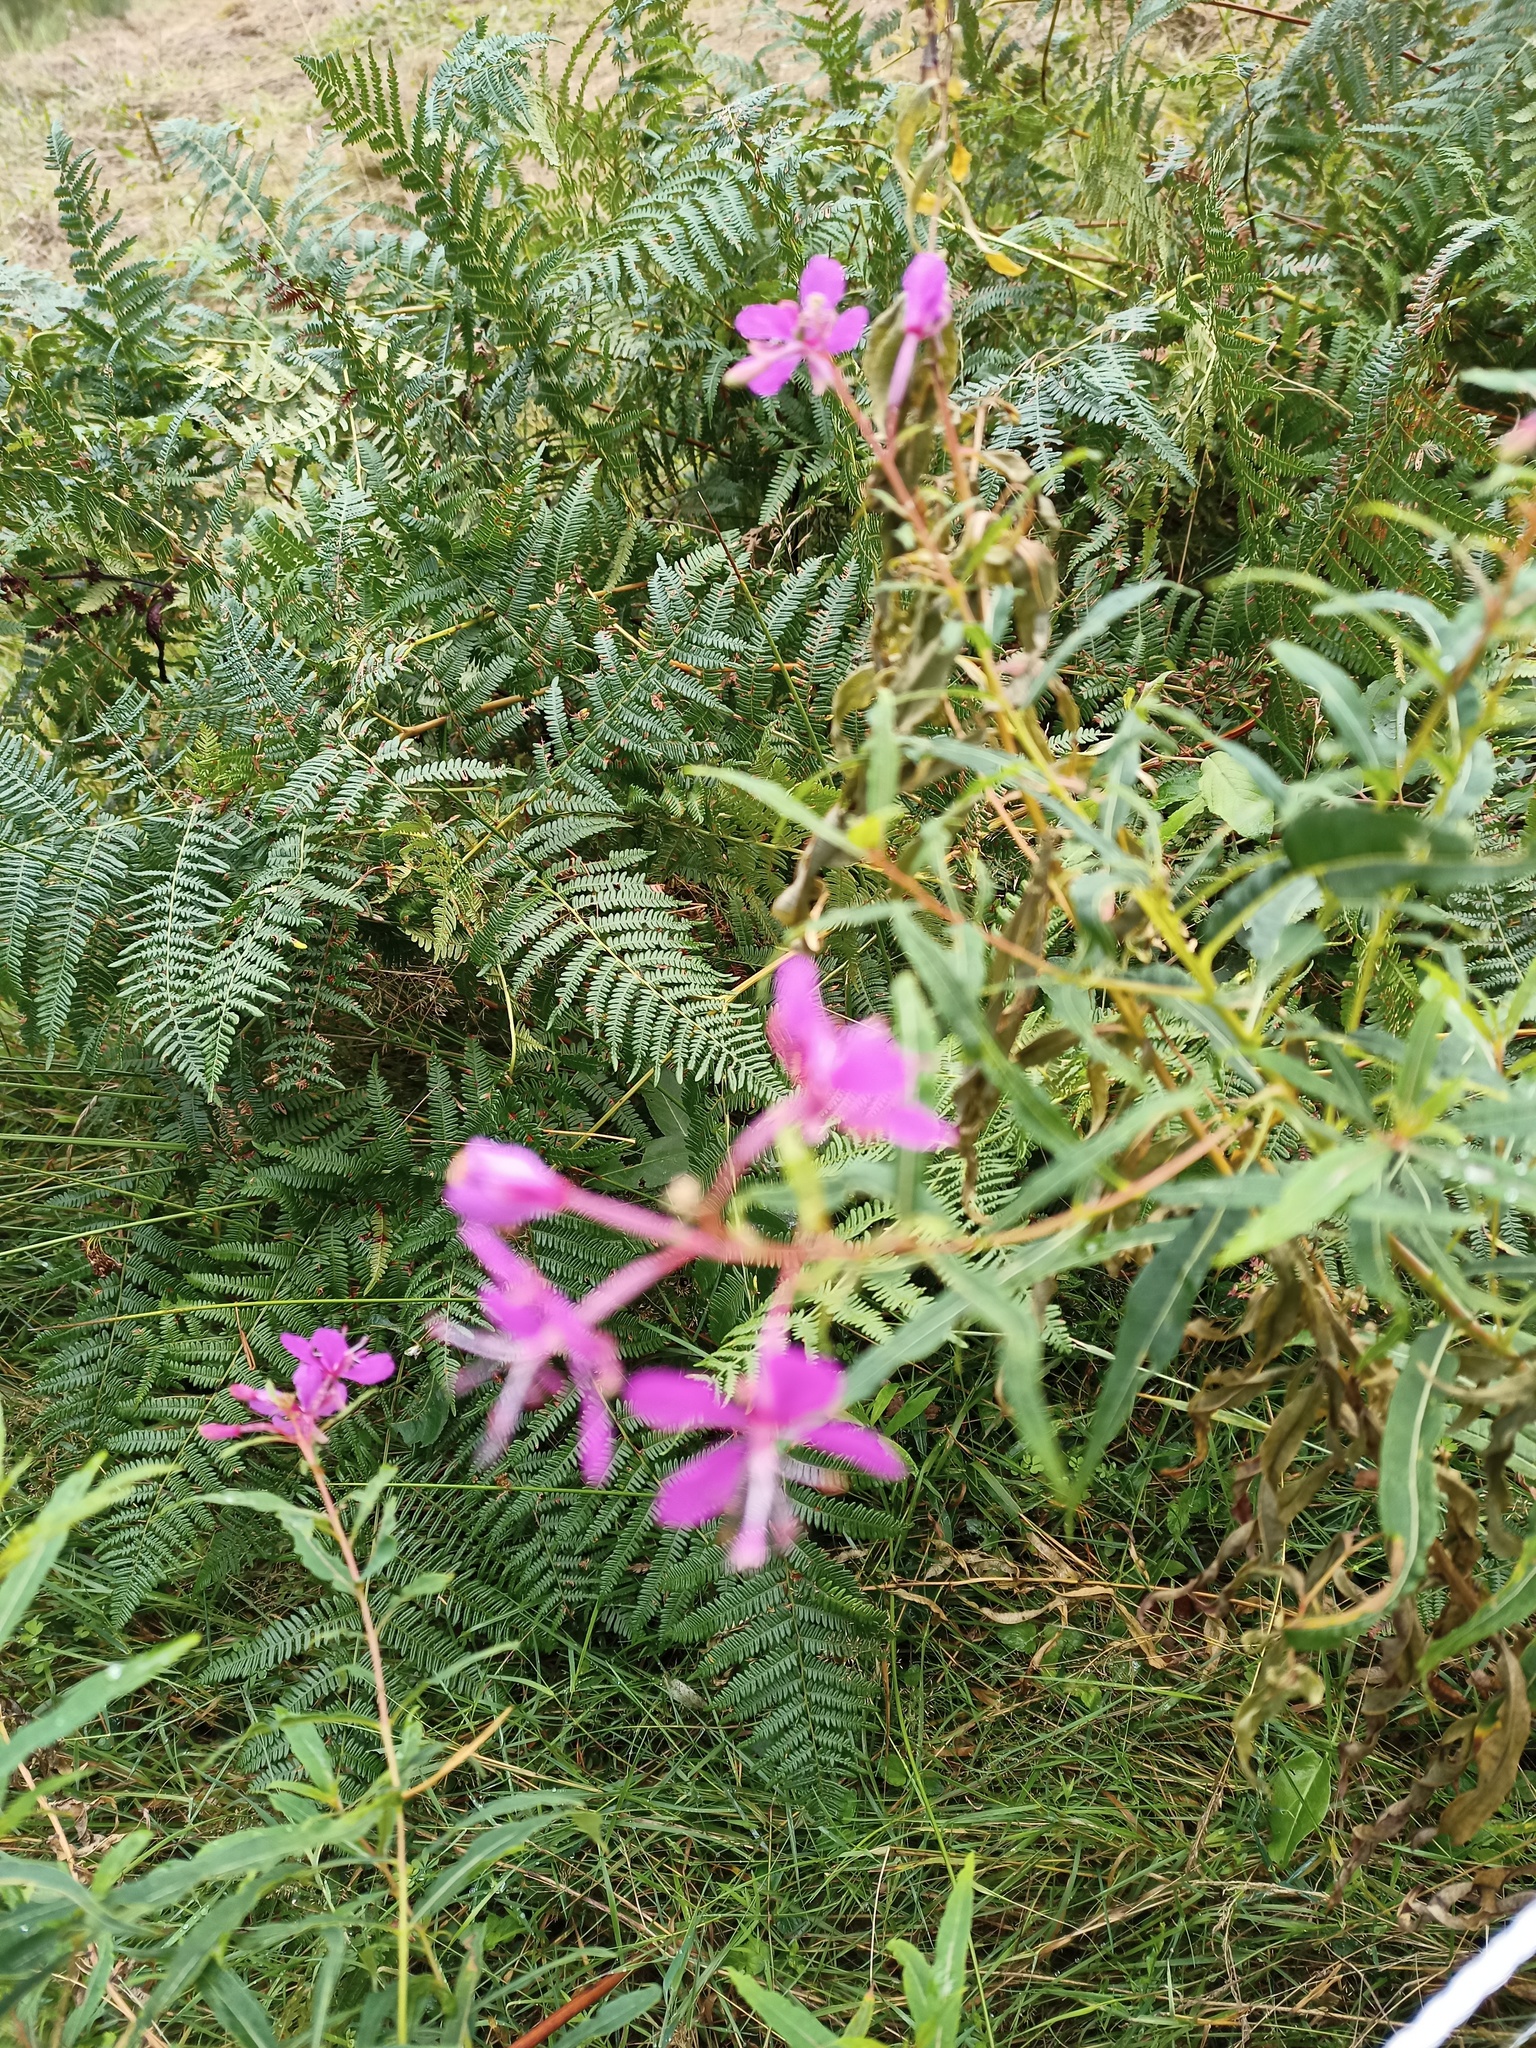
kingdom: Plantae
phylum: Tracheophyta
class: Magnoliopsida
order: Myrtales
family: Onagraceae
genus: Chamaenerion
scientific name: Chamaenerion angustifolium
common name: Fireweed
